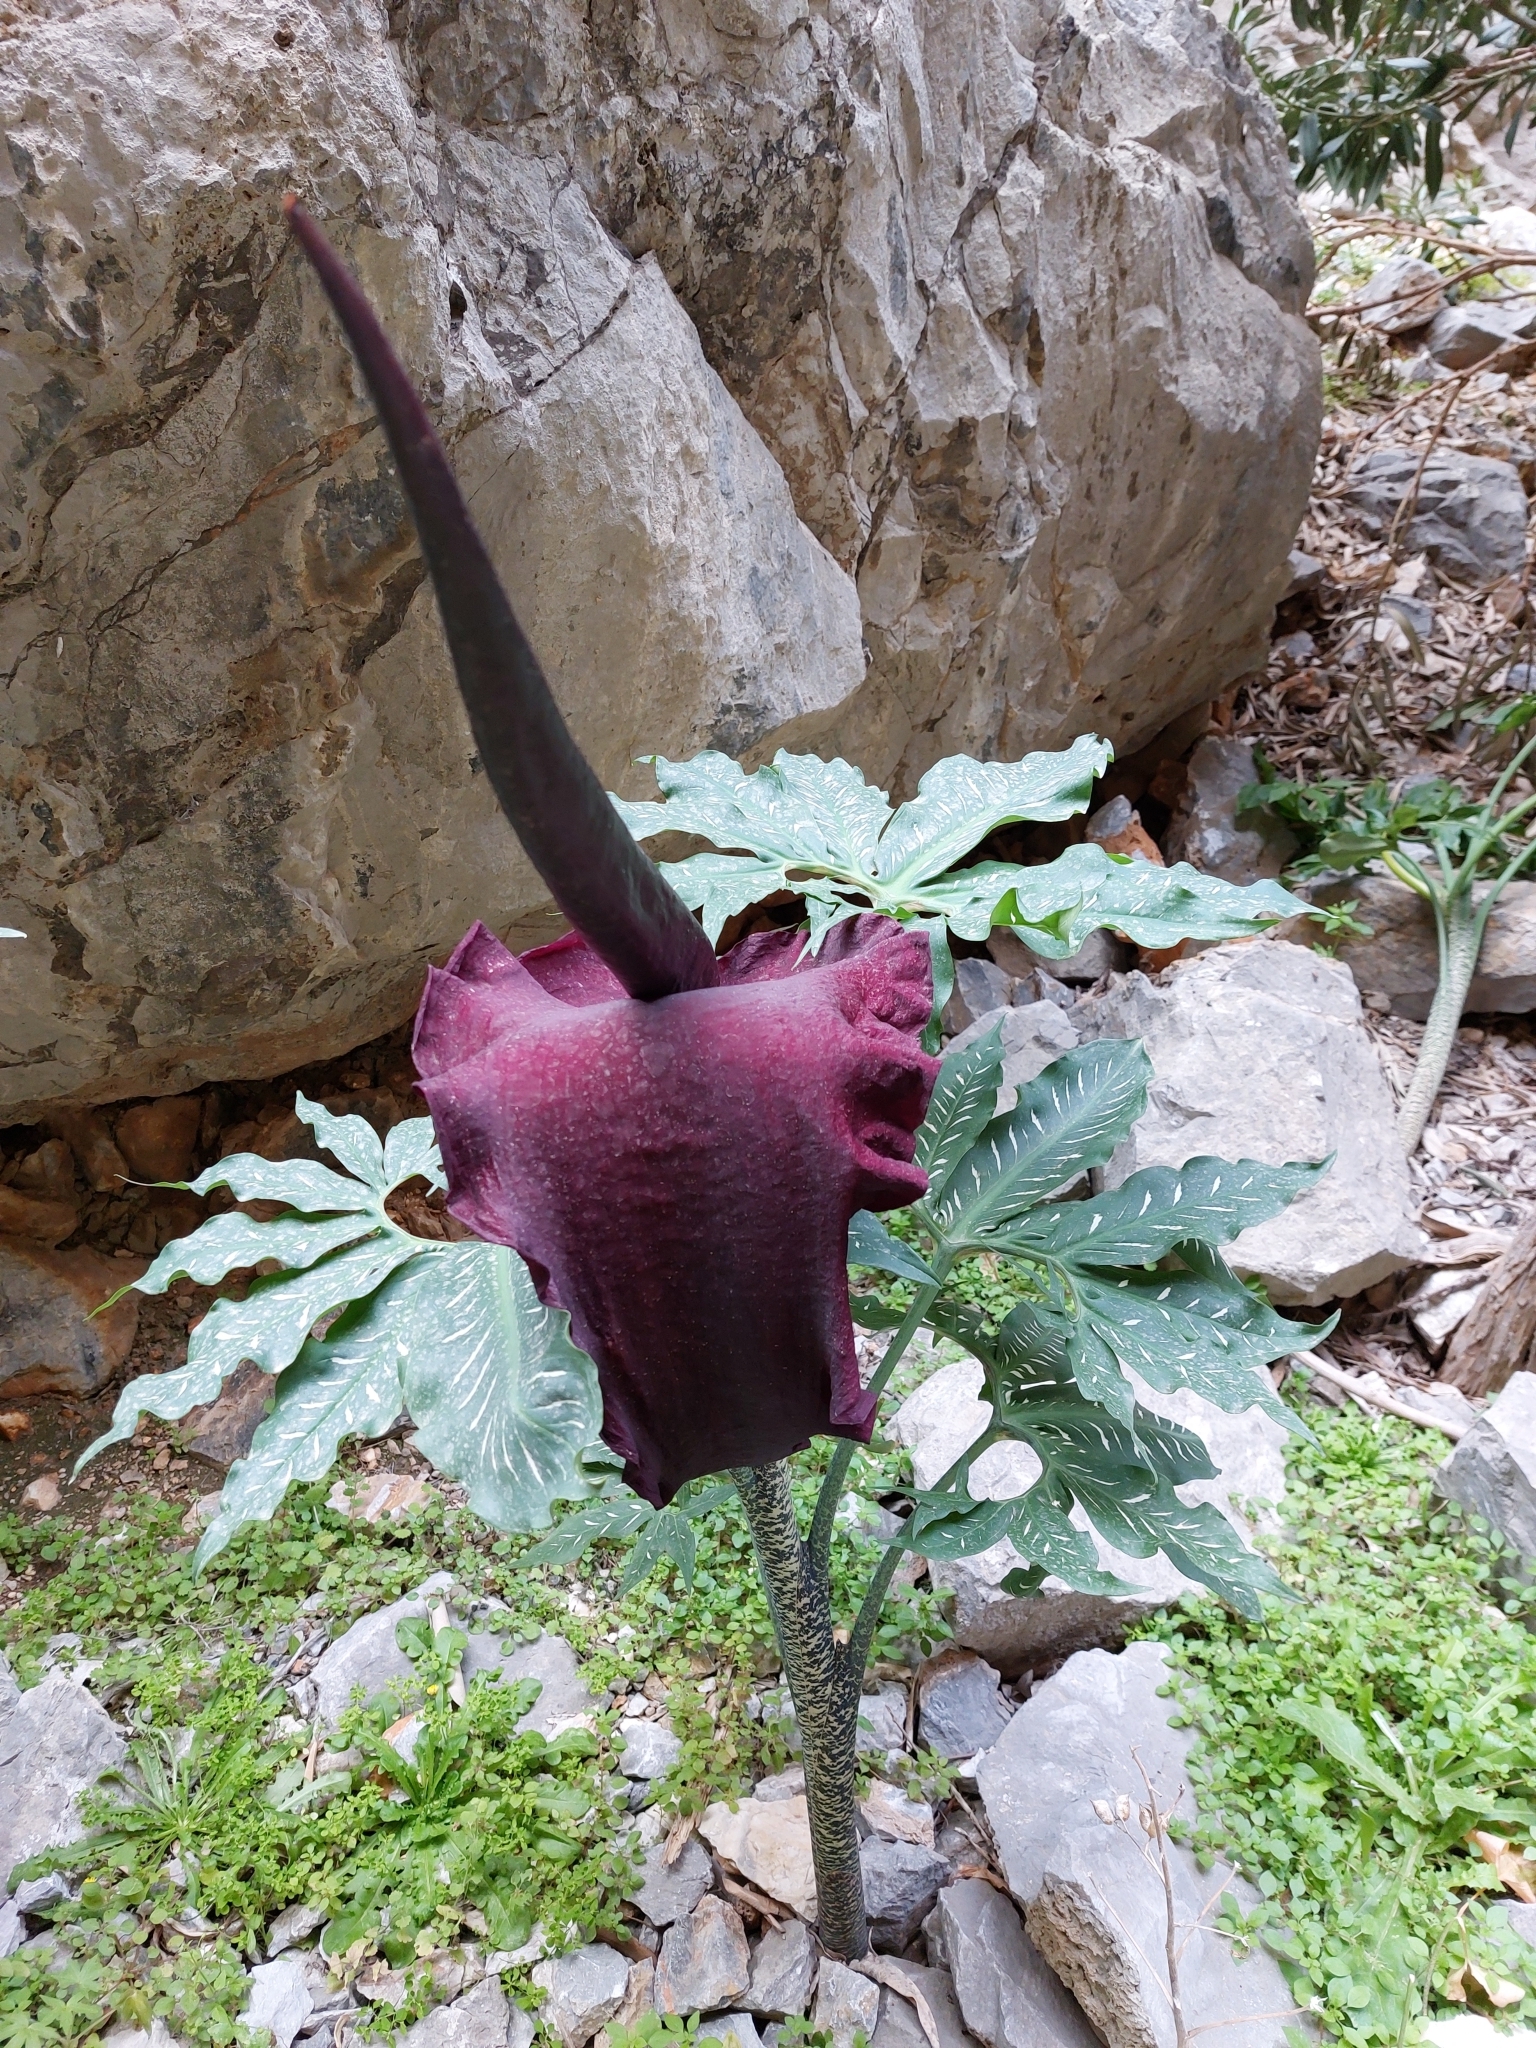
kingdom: Plantae
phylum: Tracheophyta
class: Liliopsida
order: Alismatales
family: Araceae
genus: Dracunculus
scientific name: Dracunculus vulgaris
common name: Dragon arum
